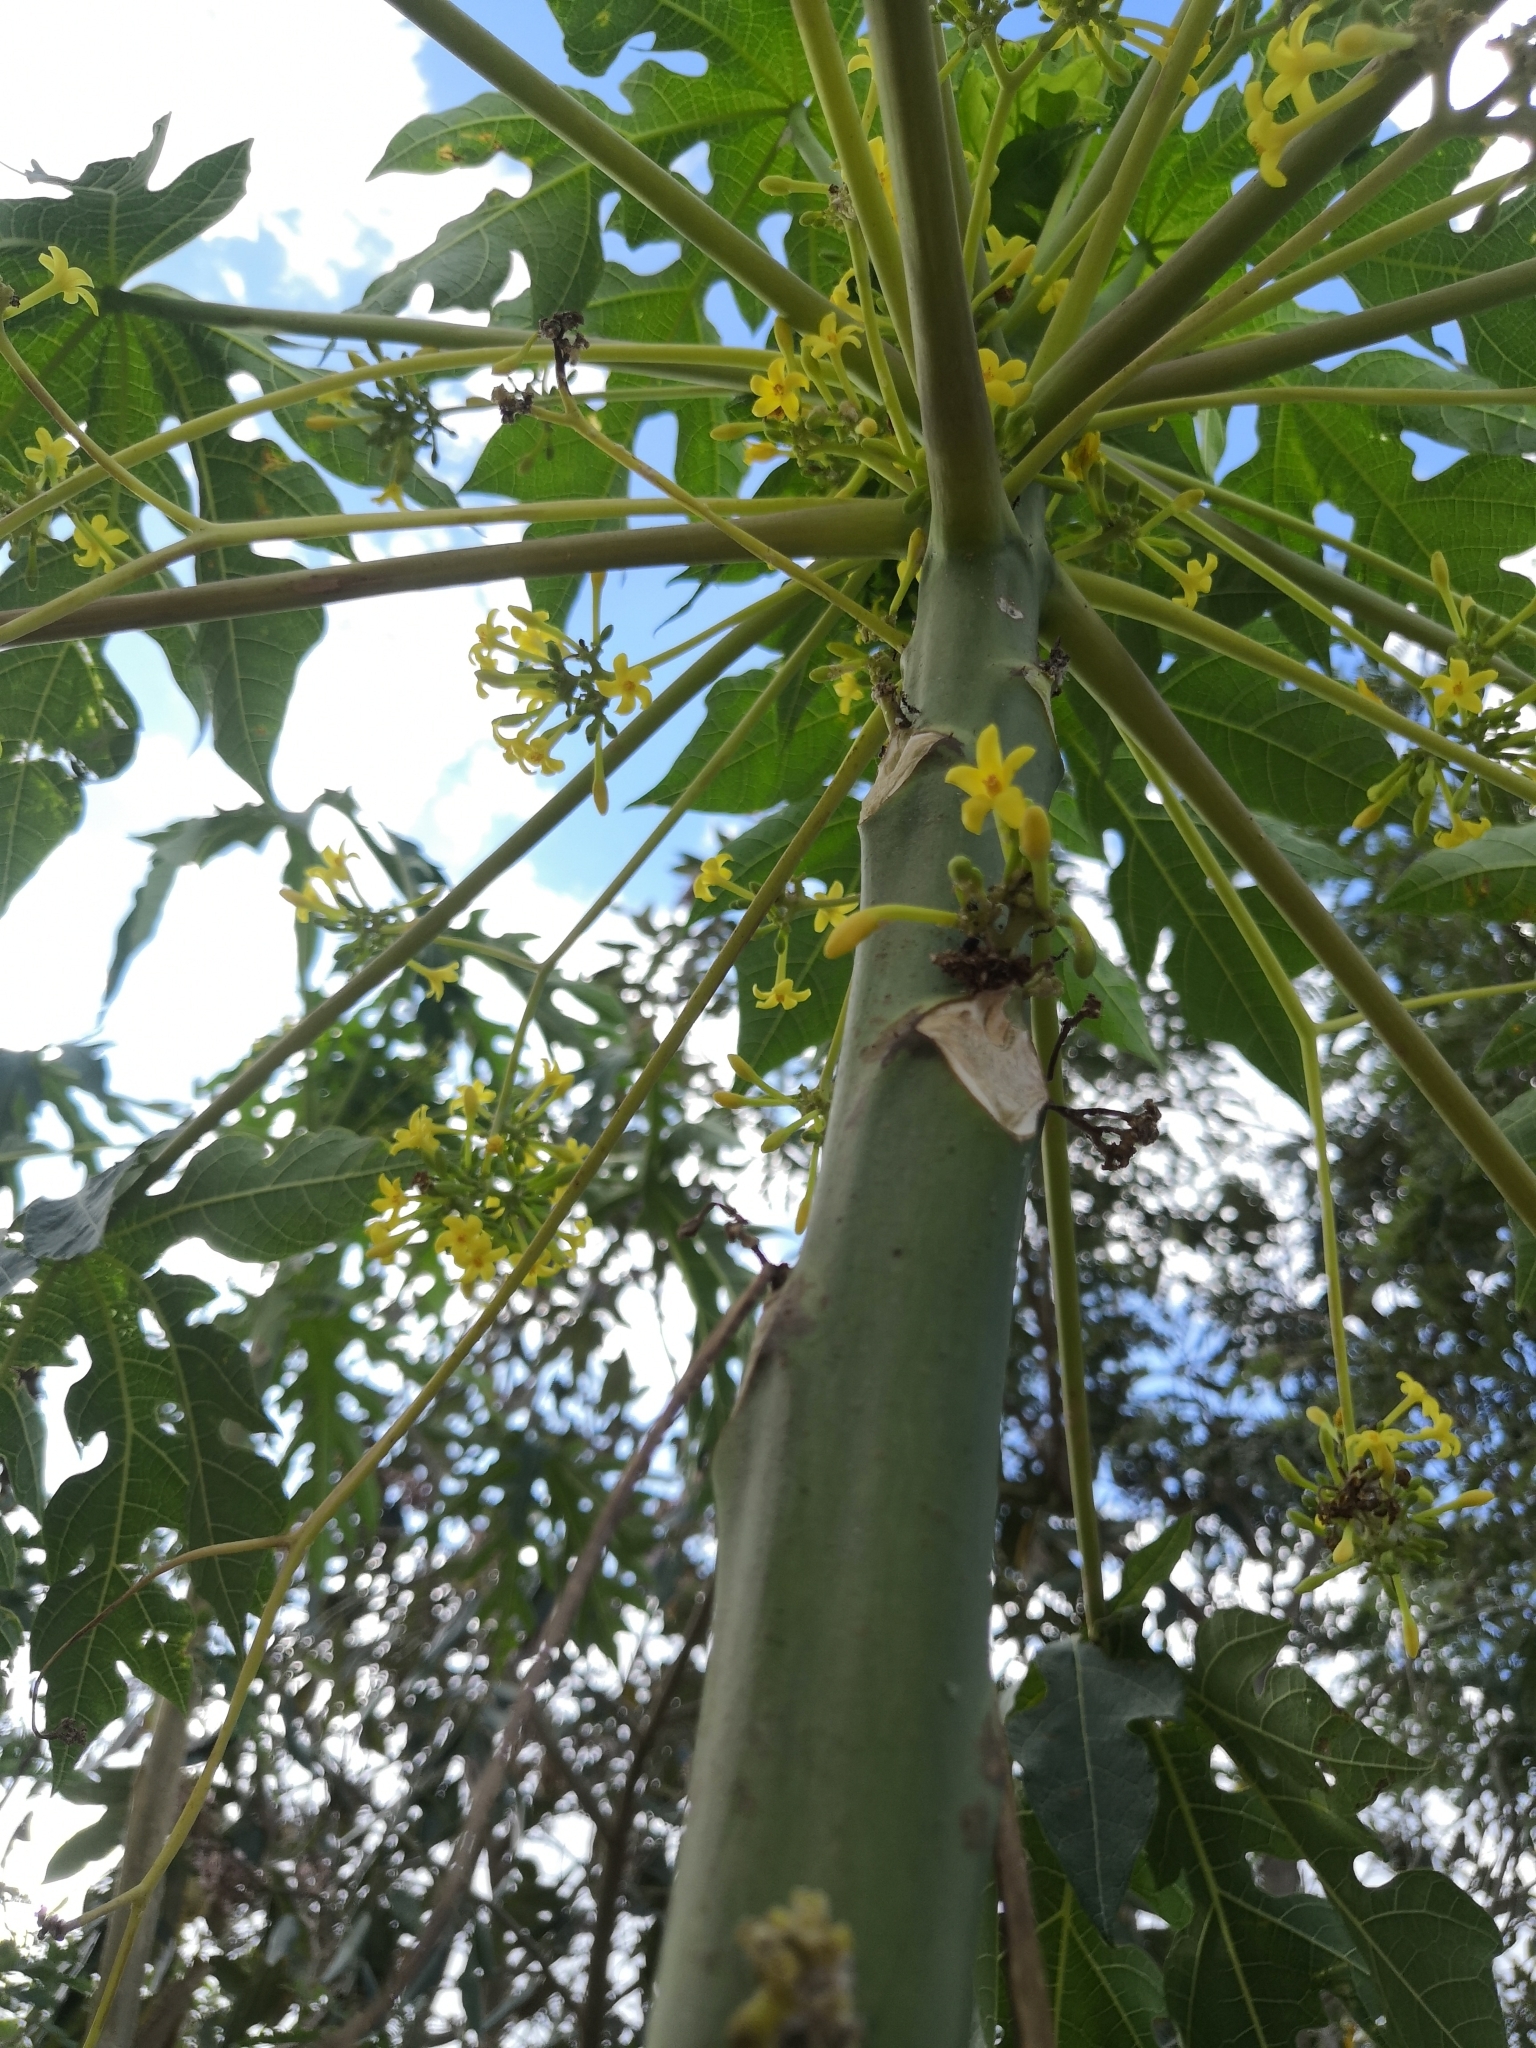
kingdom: Plantae
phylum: Tracheophyta
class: Magnoliopsida
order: Brassicales
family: Caricaceae
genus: Carica
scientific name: Carica papaya
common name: Papaya
